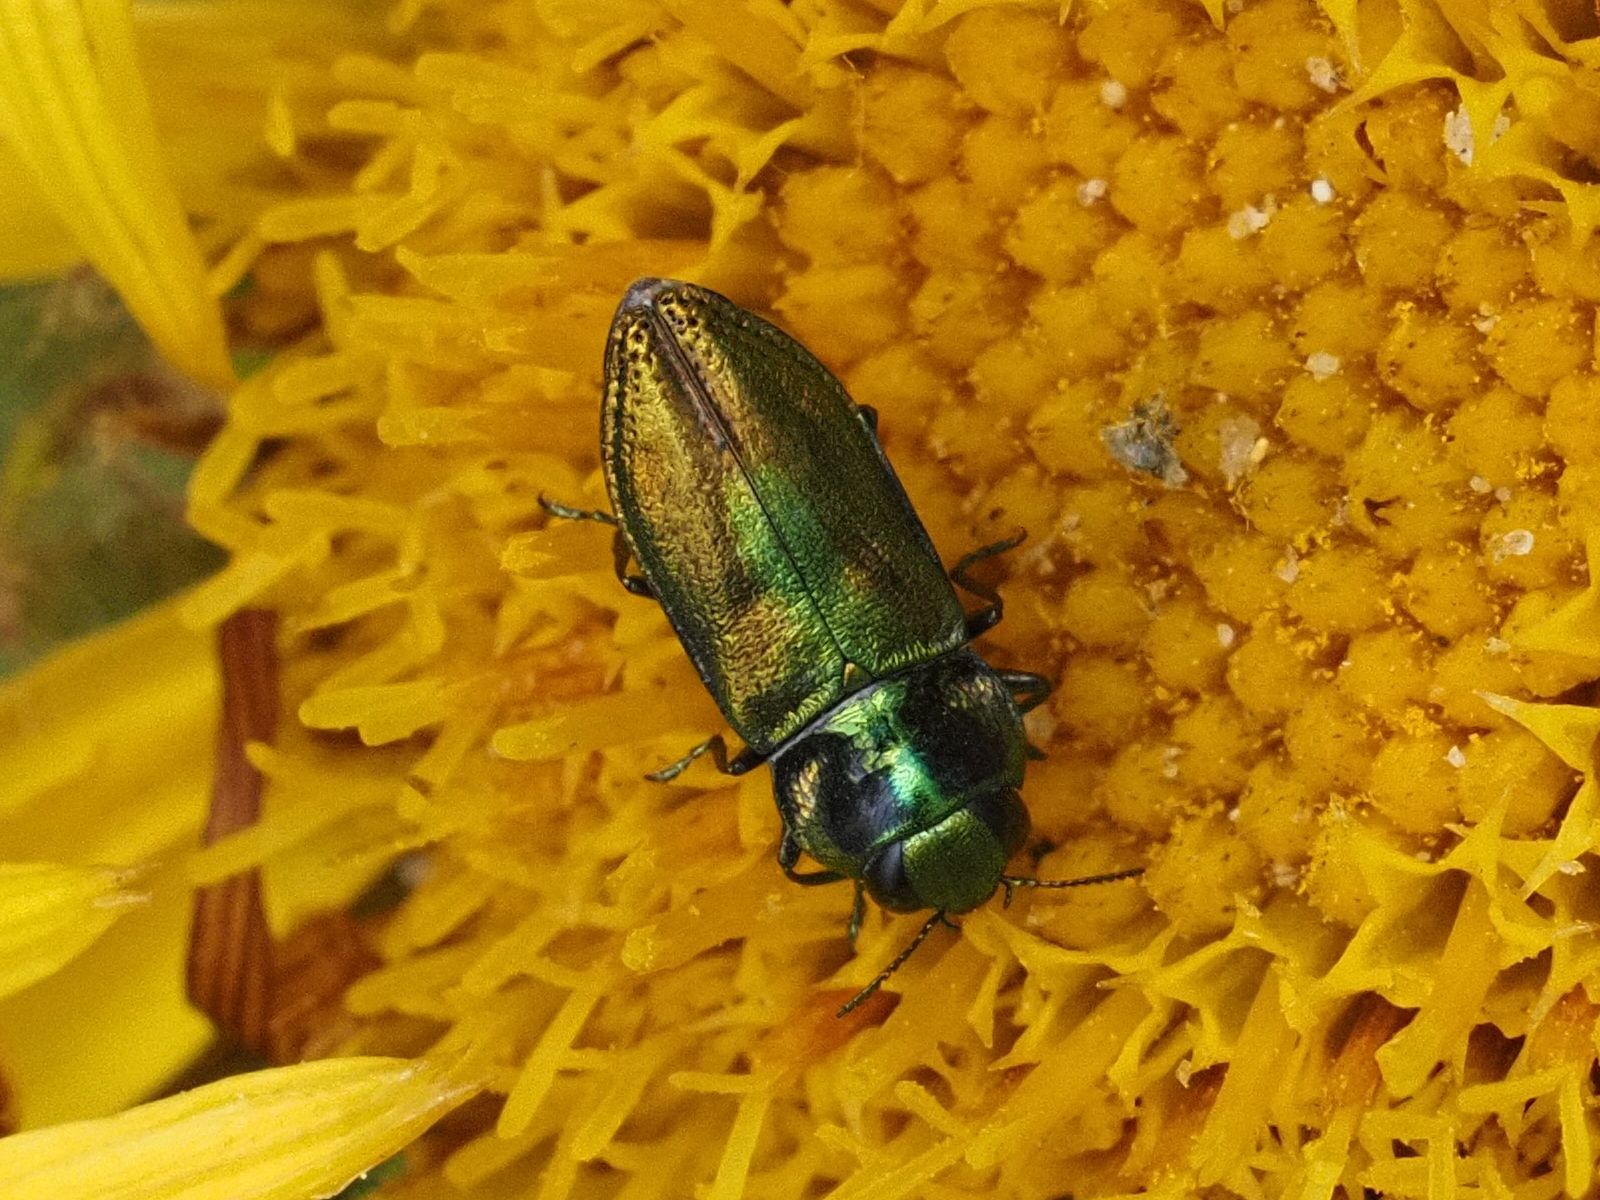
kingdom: Animalia
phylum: Arthropoda
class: Insecta
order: Coleoptera
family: Buprestidae
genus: Anthaxia
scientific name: Anthaxia fulgurans
